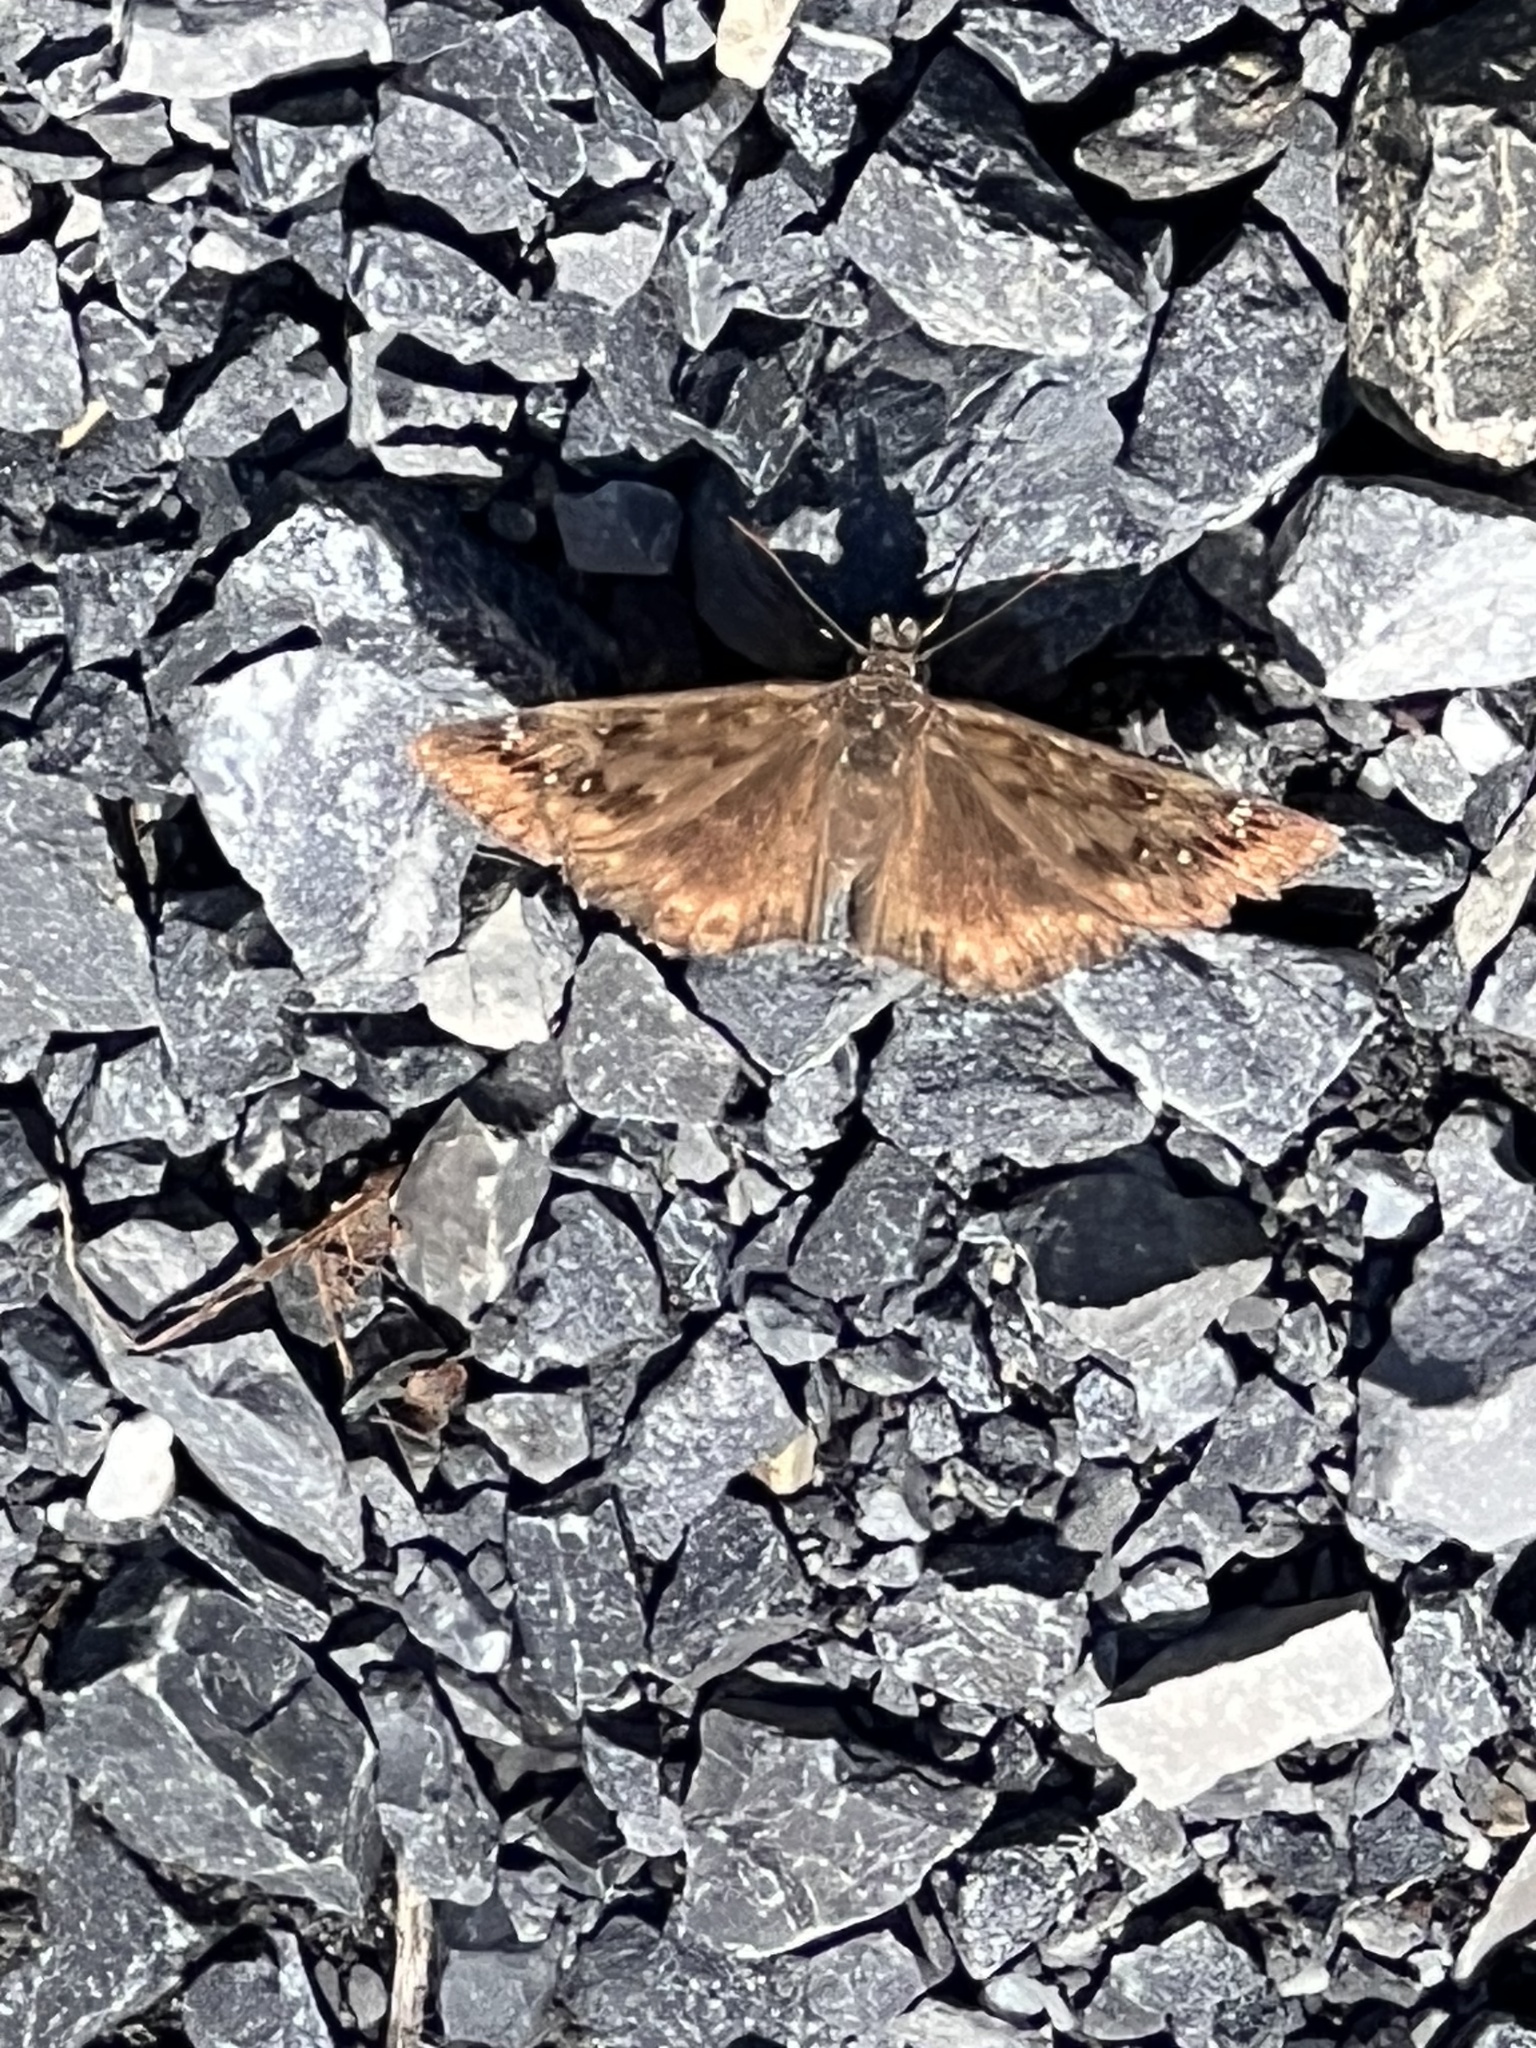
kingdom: Animalia
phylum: Arthropoda
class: Insecta
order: Lepidoptera
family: Hesperiidae
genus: Erynnis
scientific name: Erynnis horatius
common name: Horace's duskywing
